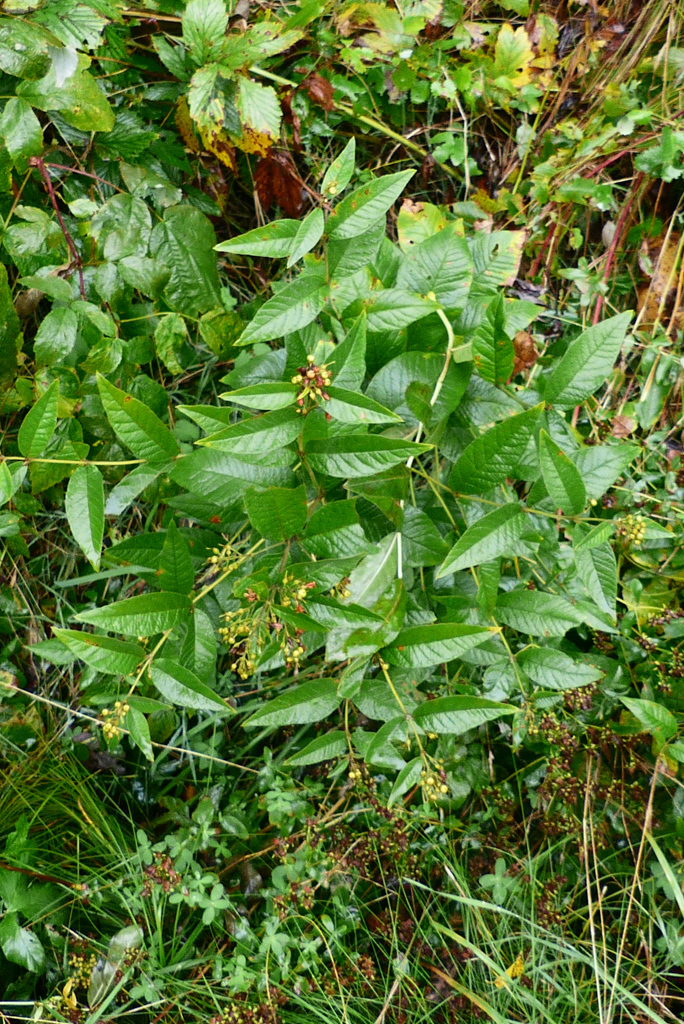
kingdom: Plantae
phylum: Tracheophyta
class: Magnoliopsida
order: Ericales
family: Primulaceae
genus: Lysimachia
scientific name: Lysimachia vulgaris
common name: Yellow loosestrife
